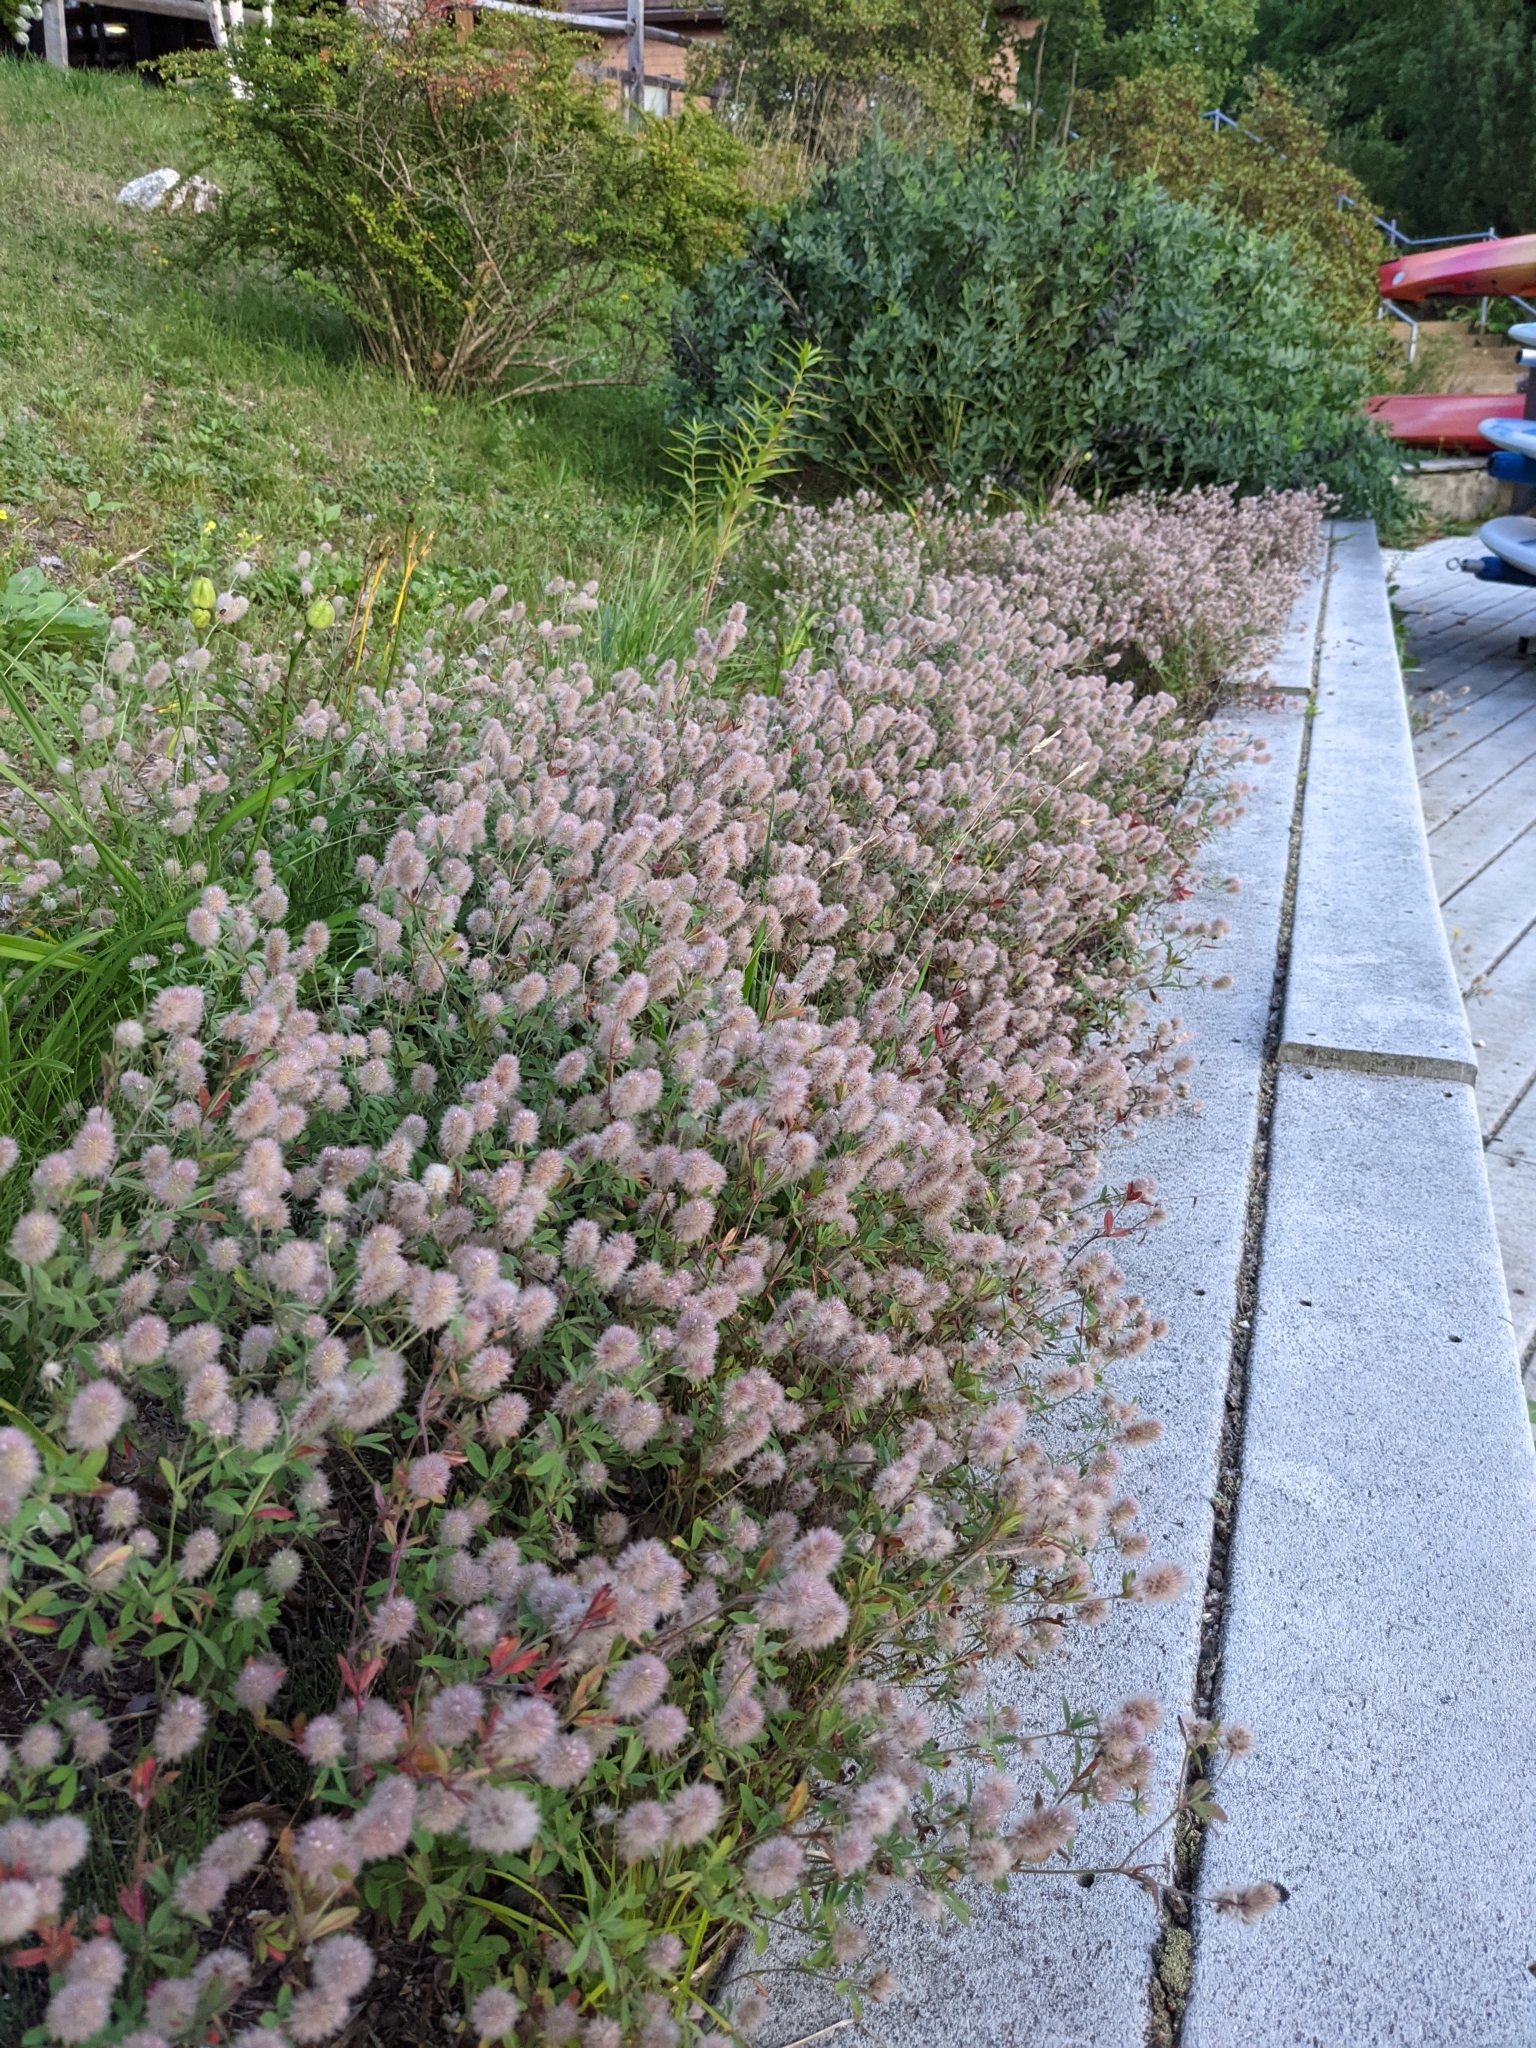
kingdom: Plantae
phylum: Tracheophyta
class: Magnoliopsida
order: Fabales
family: Fabaceae
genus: Trifolium
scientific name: Trifolium arvense
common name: Hare's-foot clover
